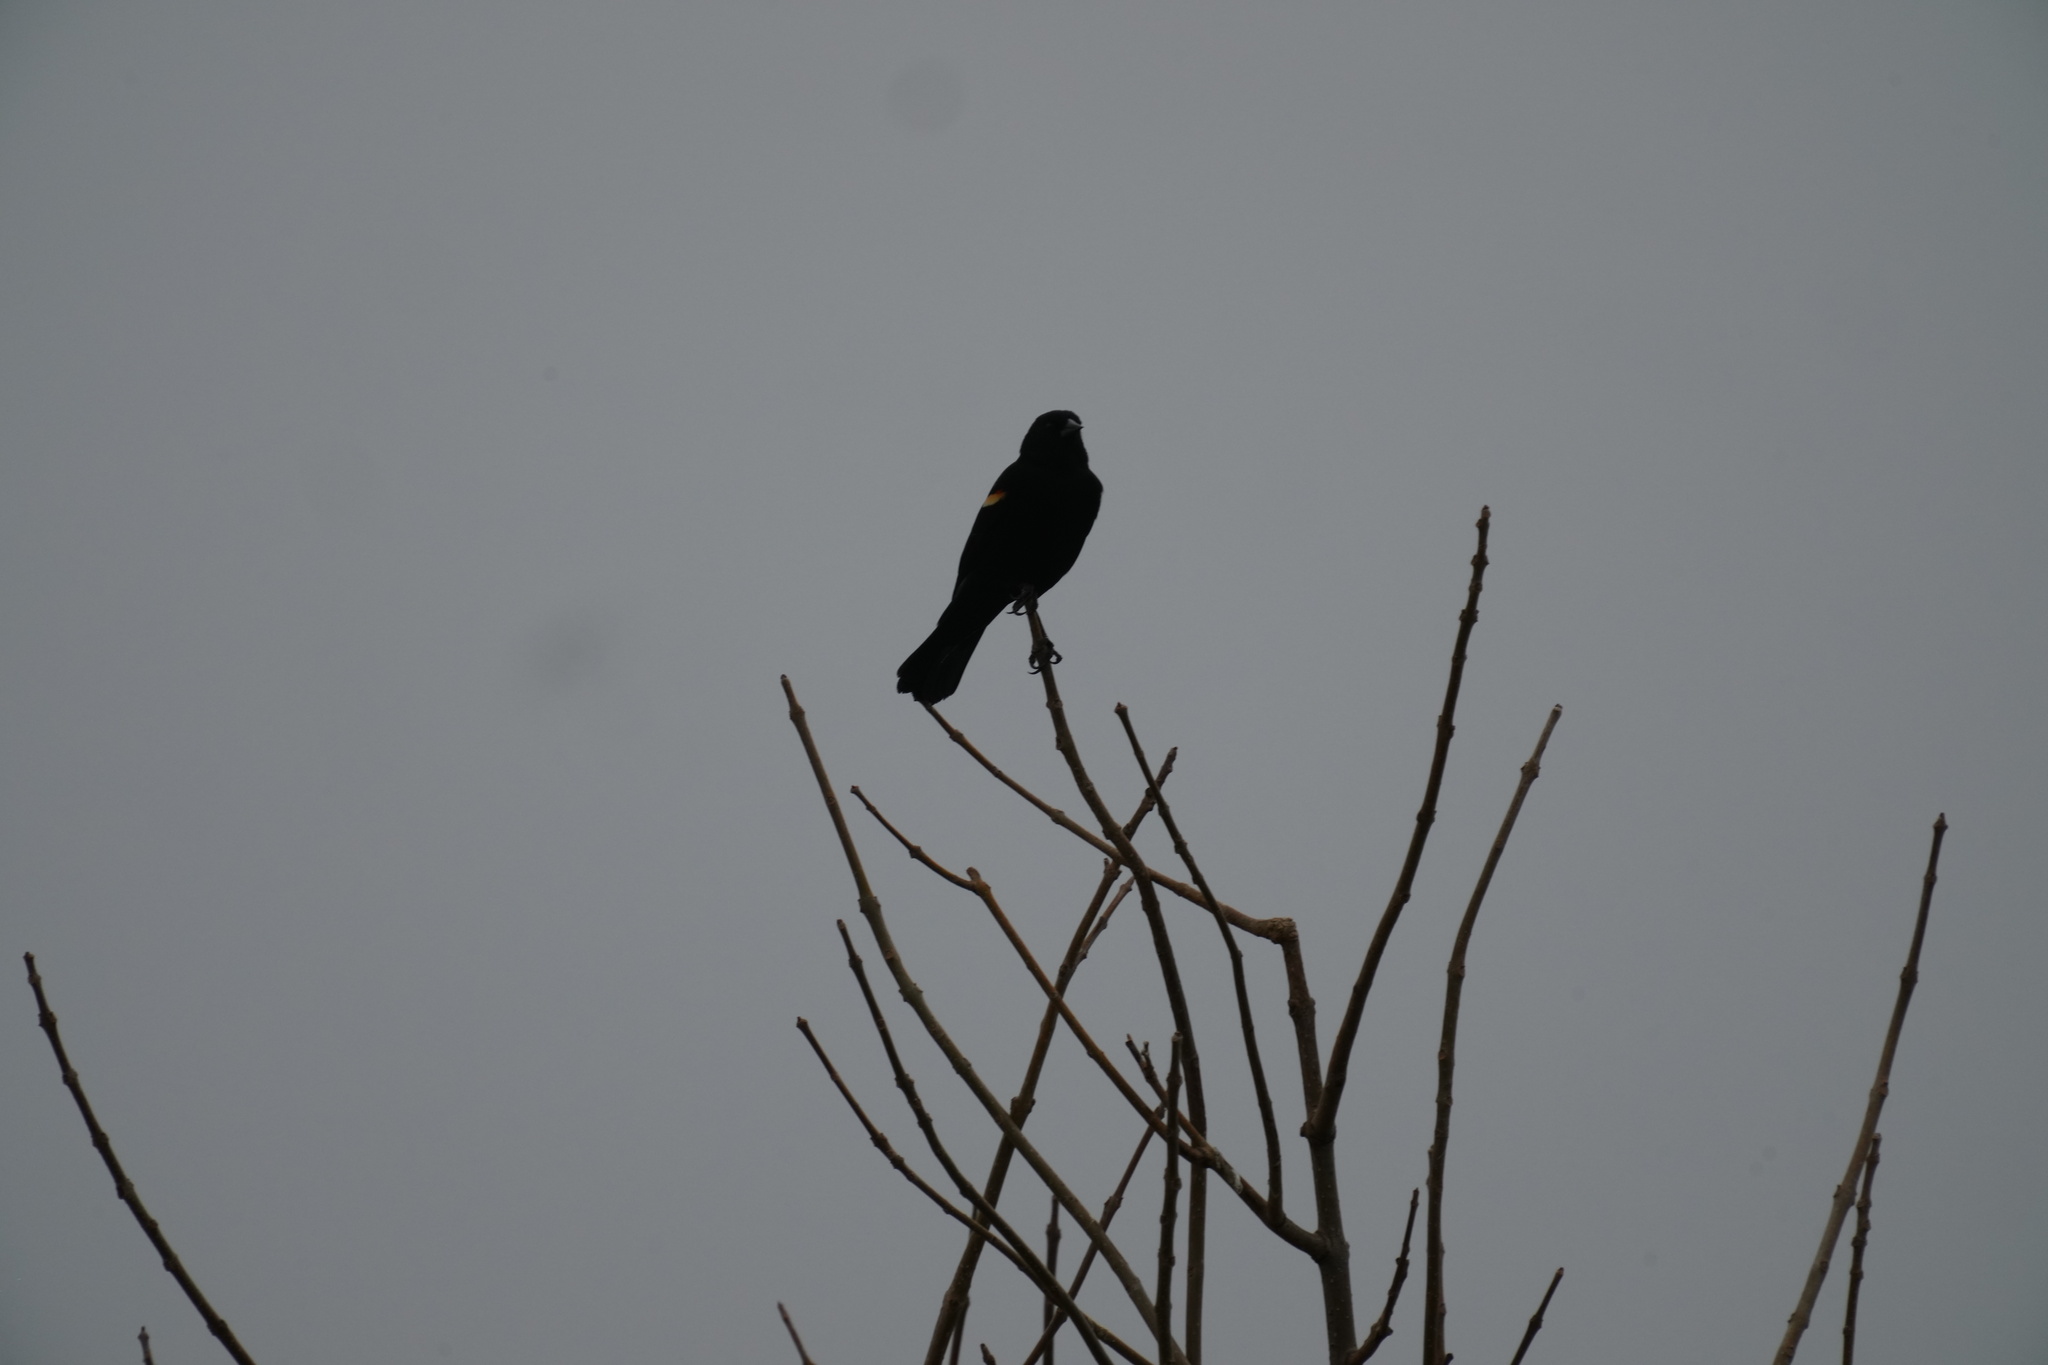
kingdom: Animalia
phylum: Chordata
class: Aves
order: Passeriformes
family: Icteridae
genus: Agelaius
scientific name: Agelaius phoeniceus
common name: Red-winged blackbird
